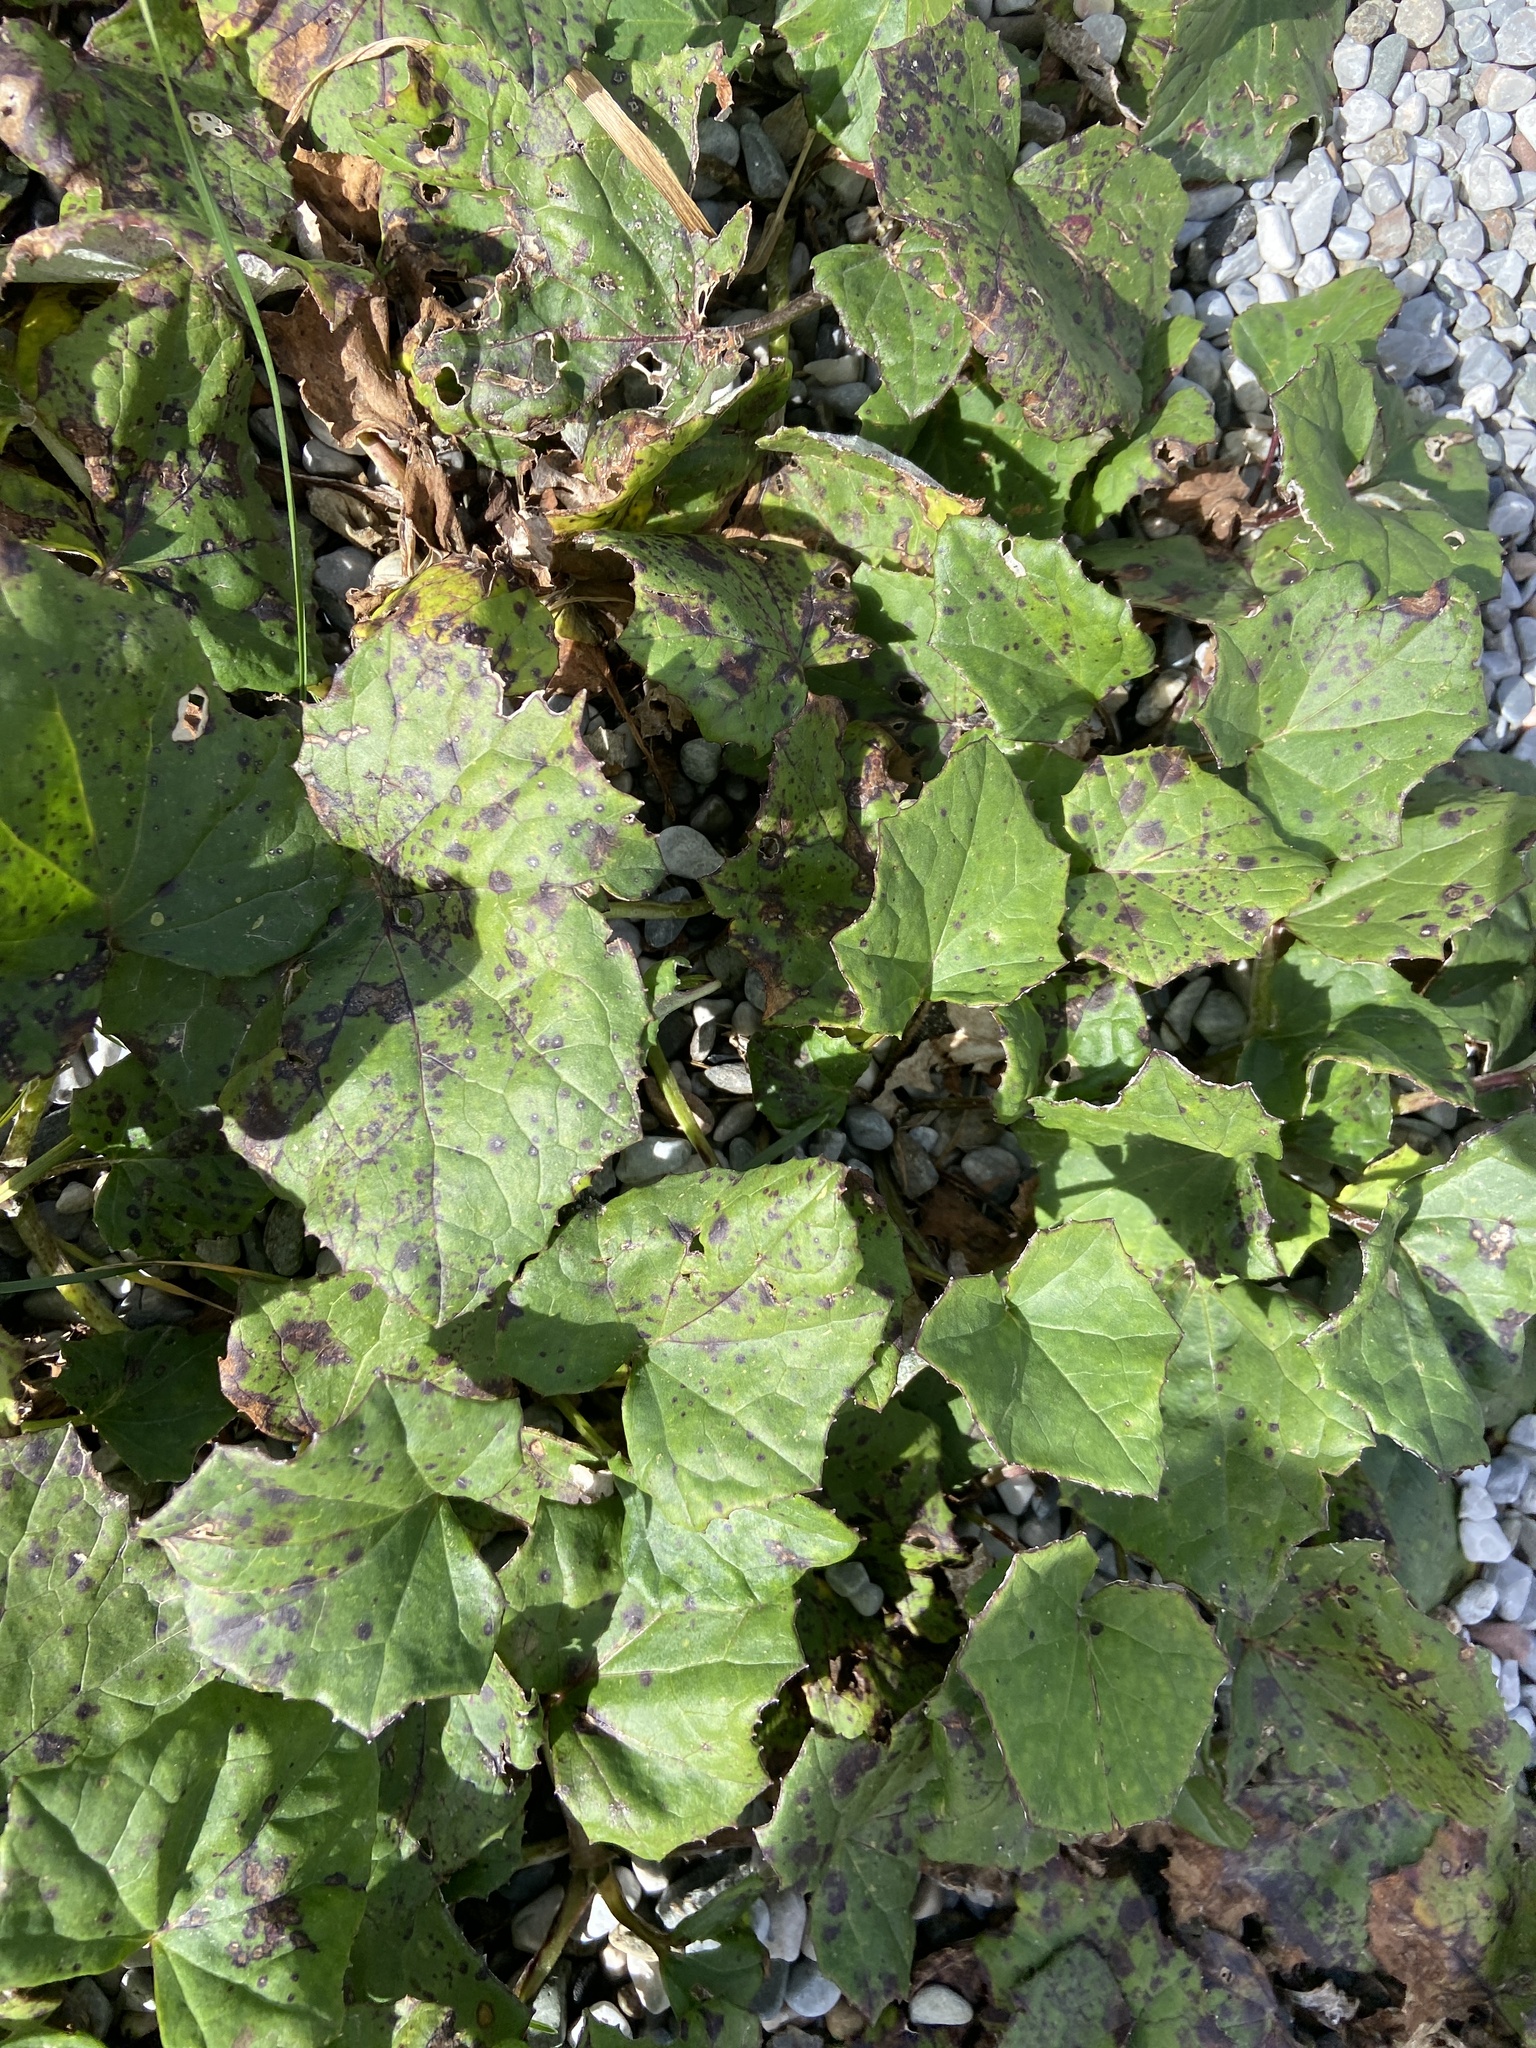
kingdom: Plantae
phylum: Tracheophyta
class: Magnoliopsida
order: Asterales
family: Asteraceae
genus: Tussilago
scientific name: Tussilago farfara
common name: Coltsfoot
